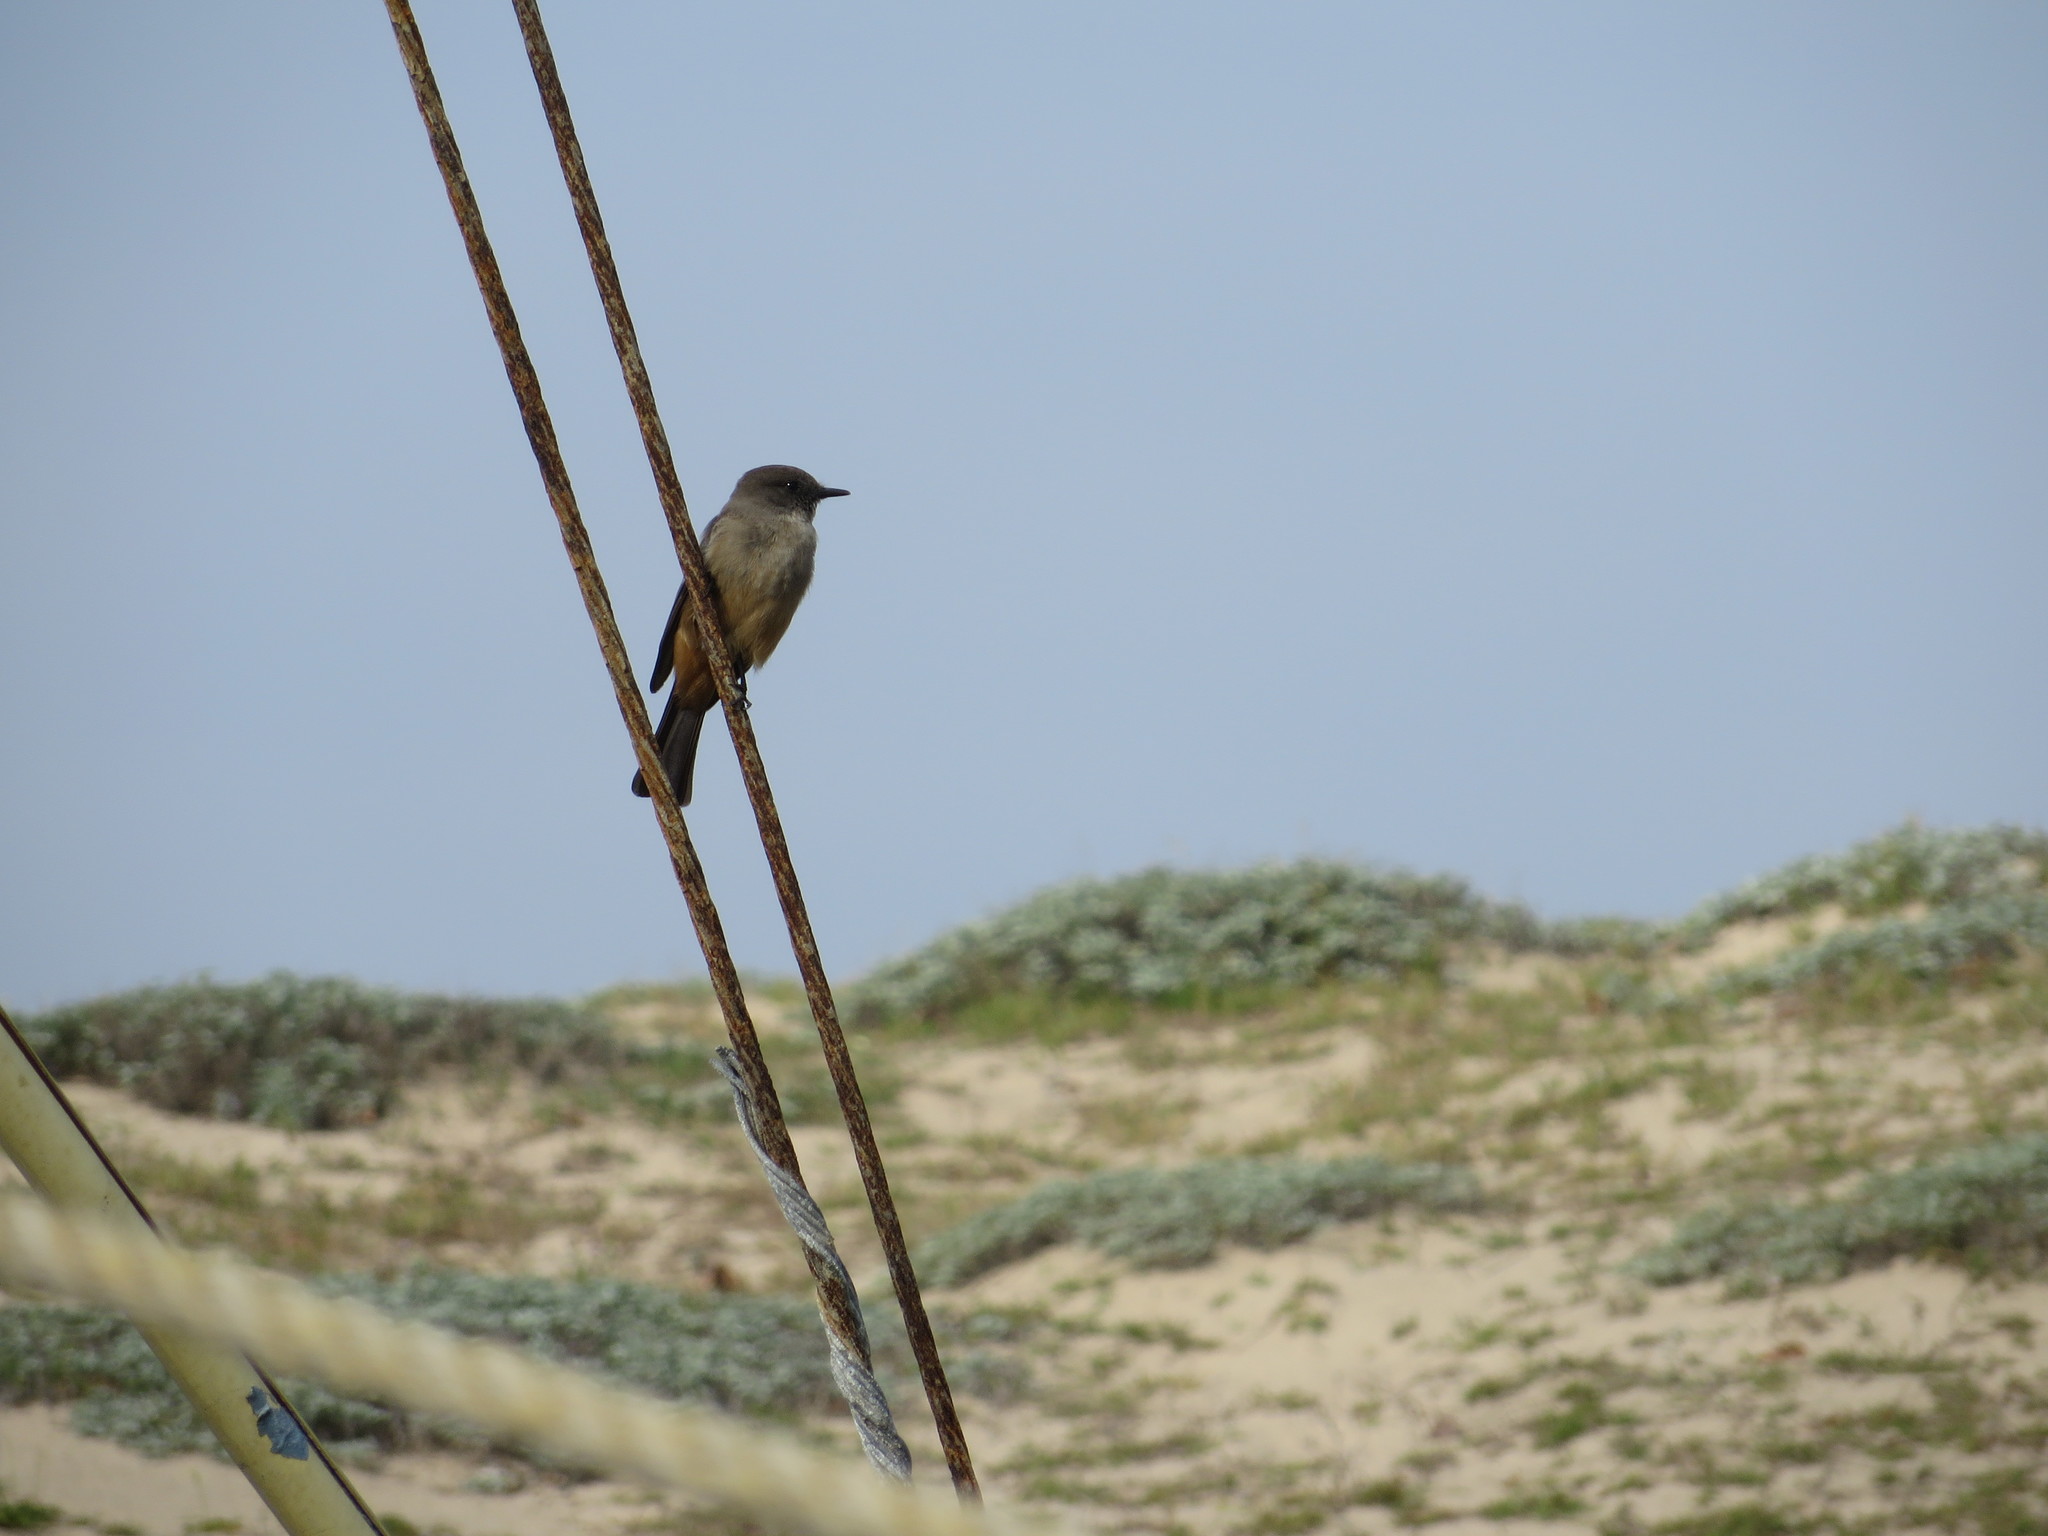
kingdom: Animalia
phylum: Chordata
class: Aves
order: Passeriformes
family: Tyrannidae
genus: Sayornis
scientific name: Sayornis saya
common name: Say's phoebe
